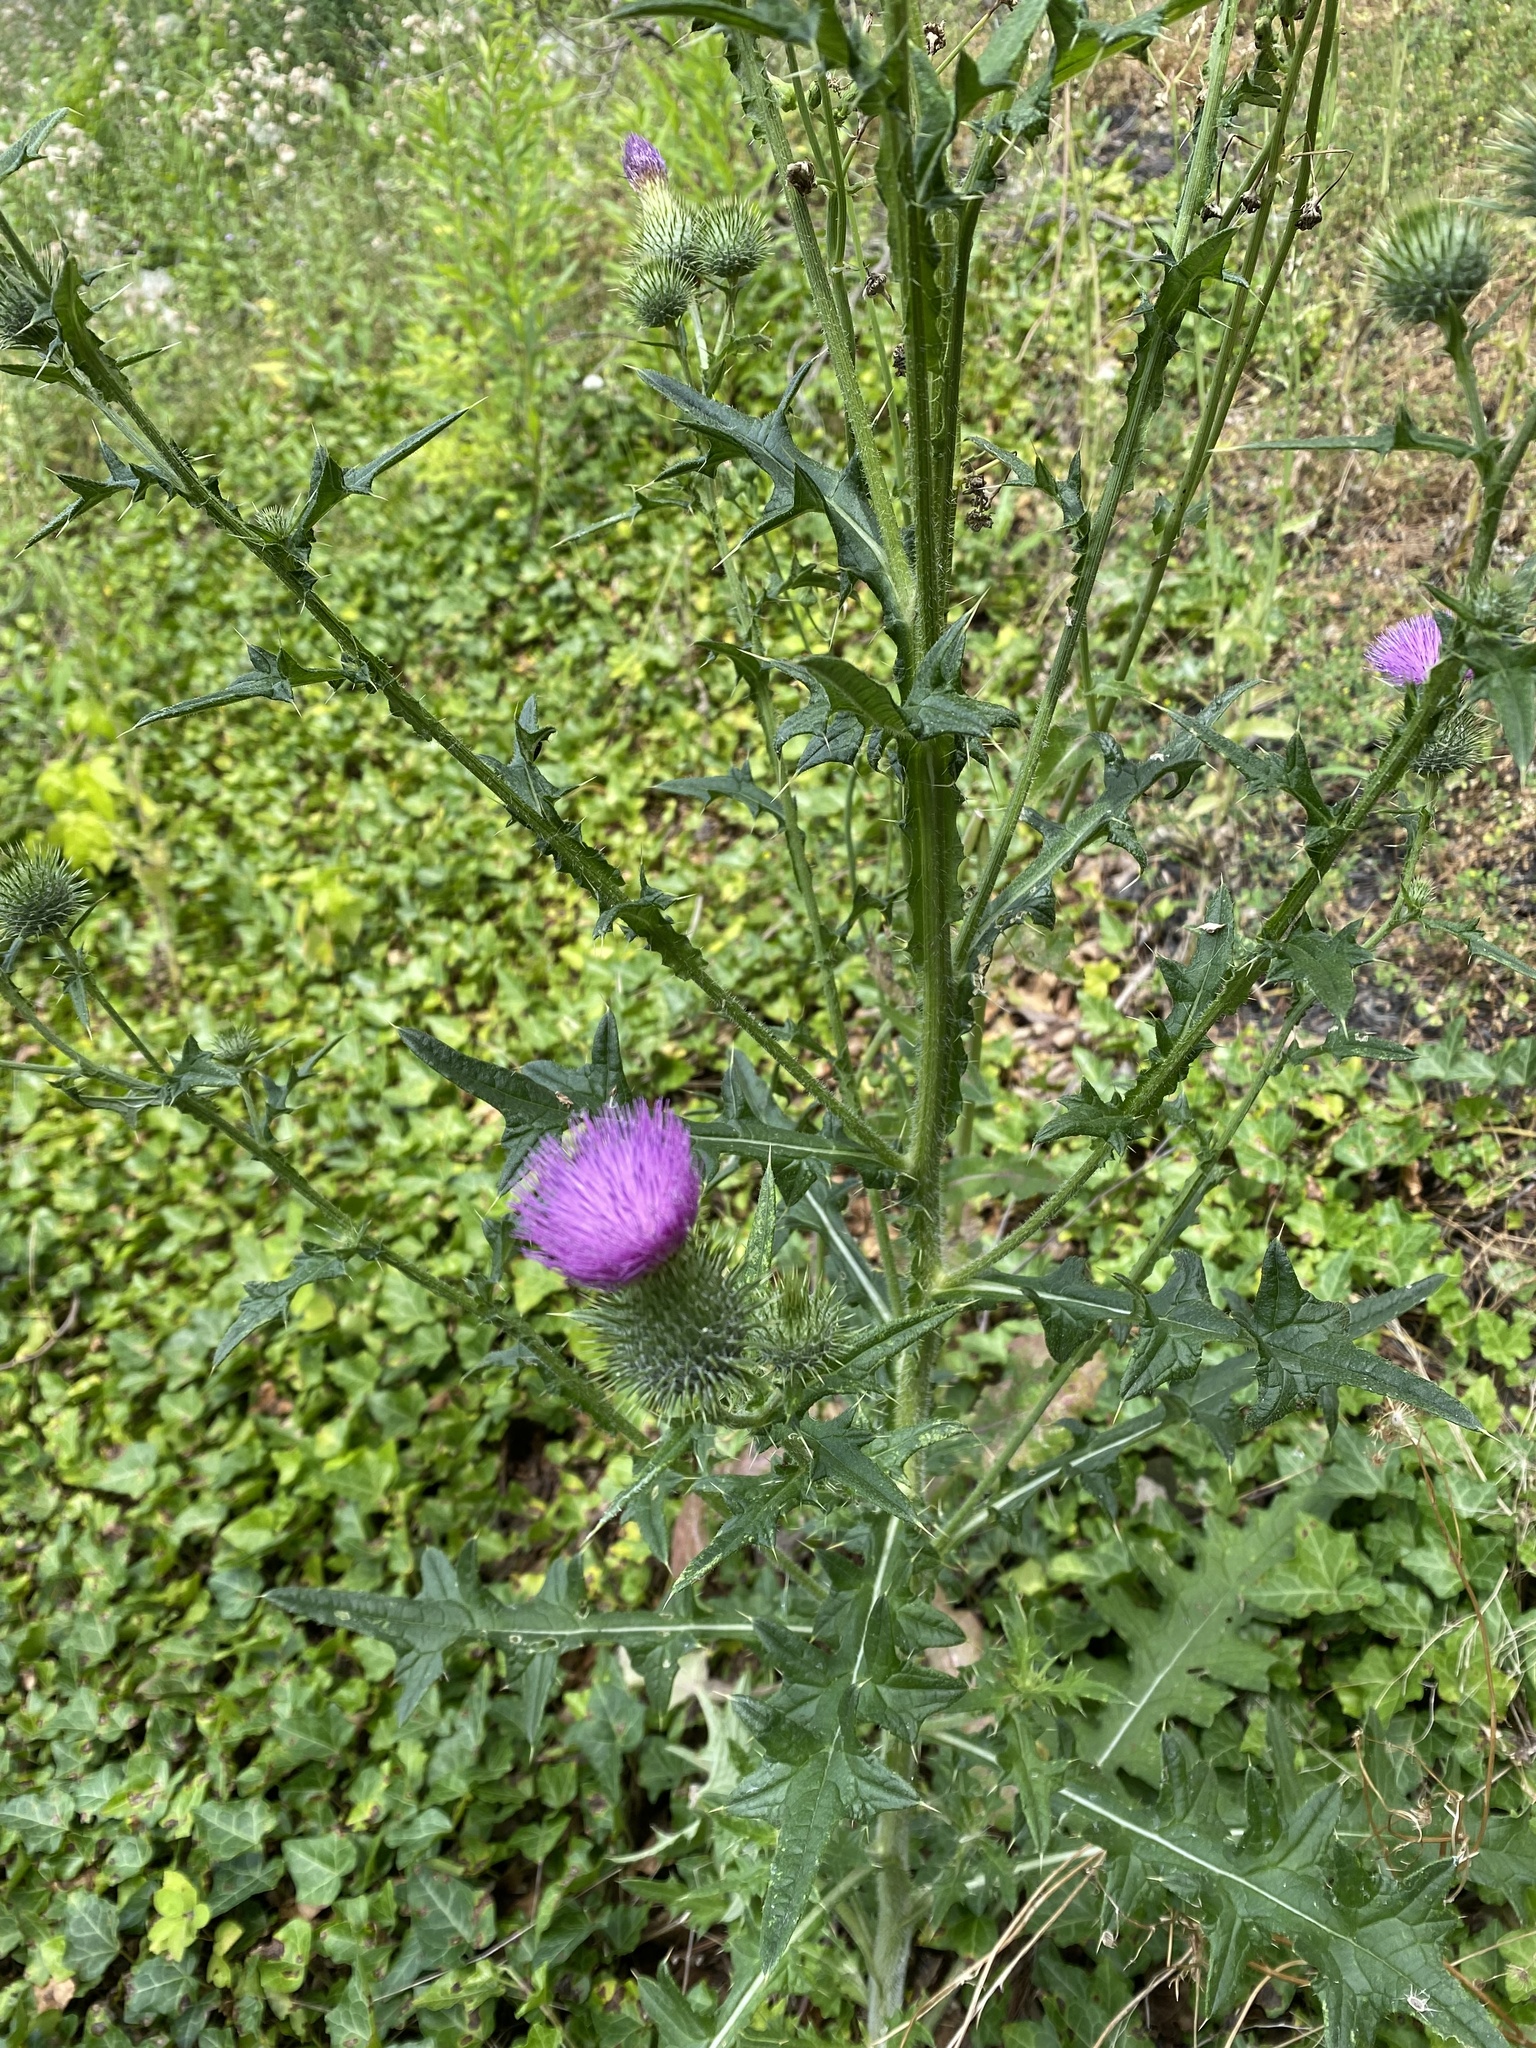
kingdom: Plantae
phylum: Tracheophyta
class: Magnoliopsida
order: Asterales
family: Asteraceae
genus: Cirsium
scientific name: Cirsium vulgare
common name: Bull thistle
